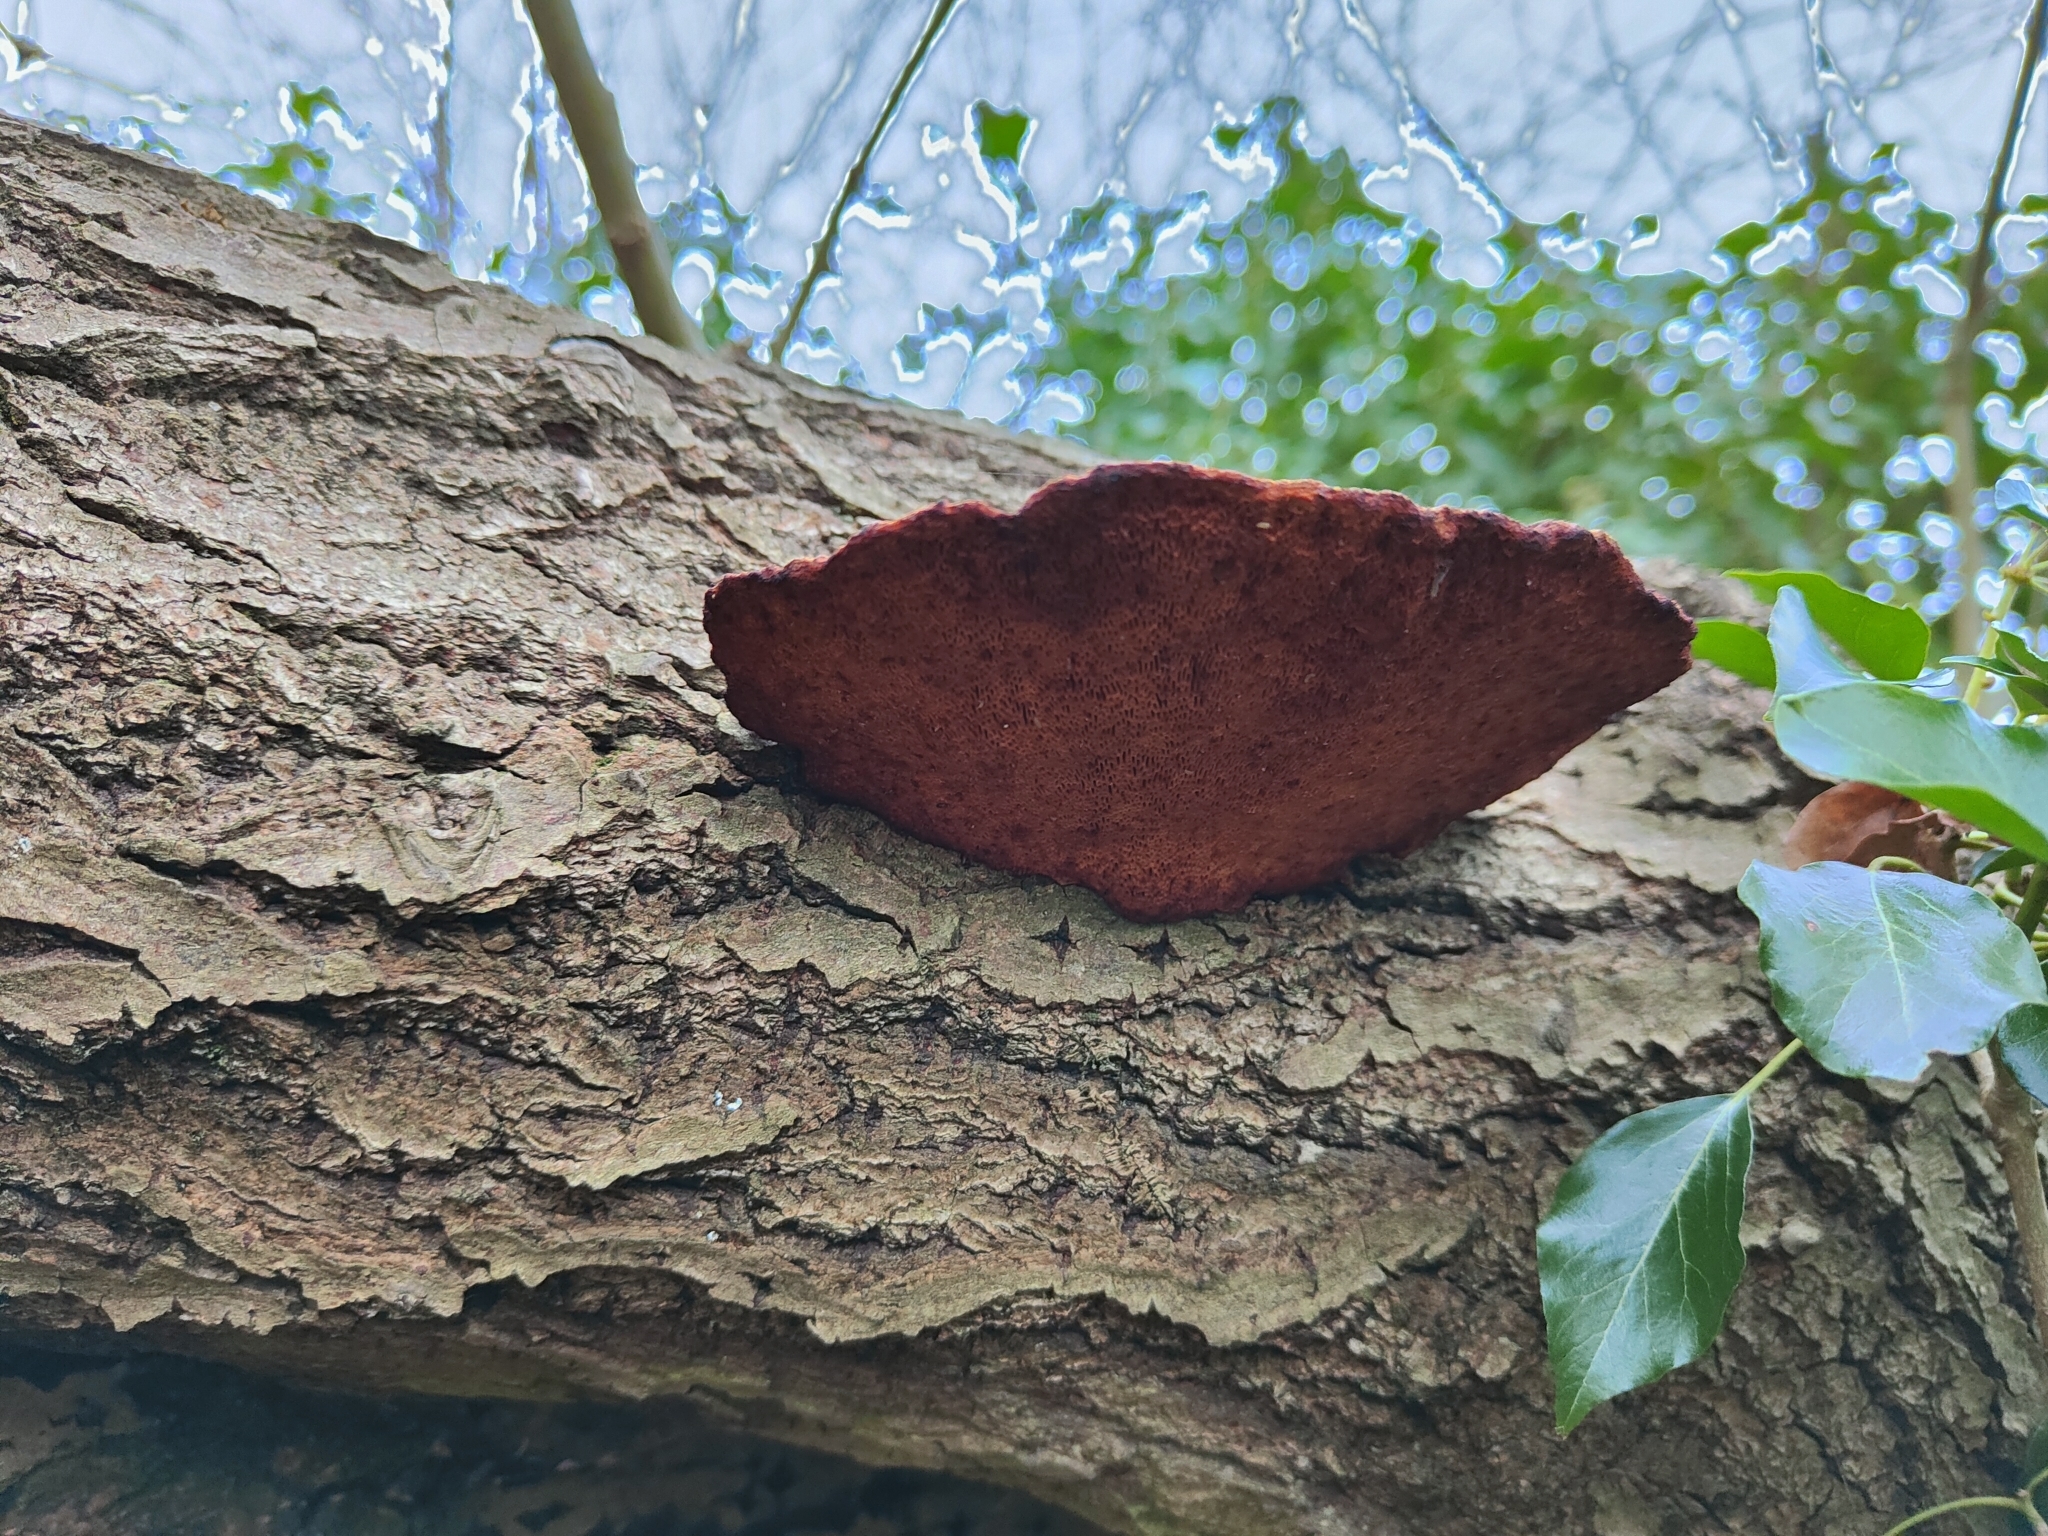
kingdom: Fungi
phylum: Basidiomycota
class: Agaricomycetes
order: Polyporales
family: Polyporaceae
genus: Daedaleopsis
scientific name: Daedaleopsis confragosa
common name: Blushing bracket
